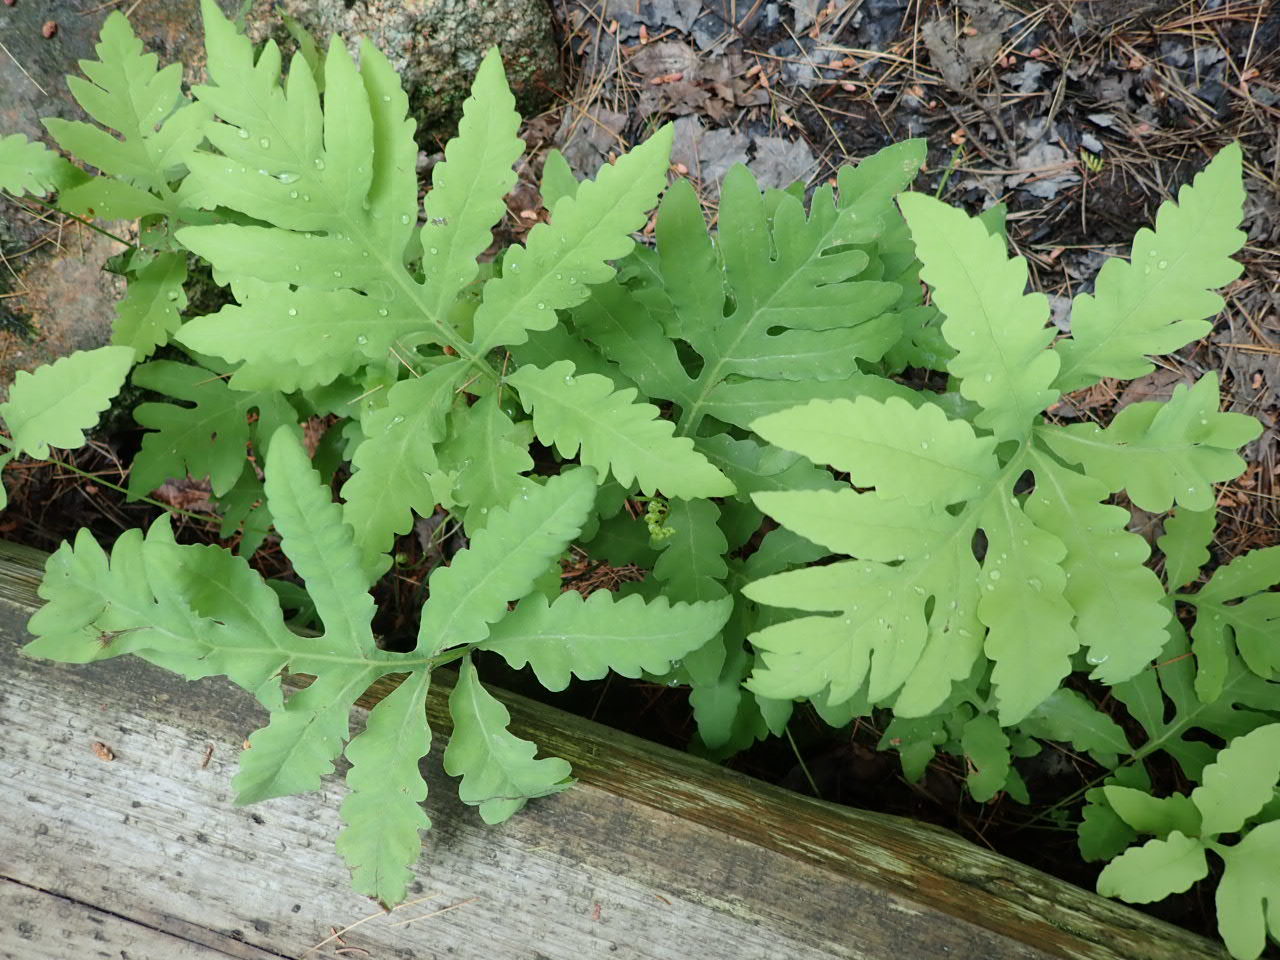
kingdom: Plantae
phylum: Tracheophyta
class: Polypodiopsida
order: Polypodiales
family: Onocleaceae
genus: Onoclea
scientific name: Onoclea sensibilis
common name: Sensitive fern
